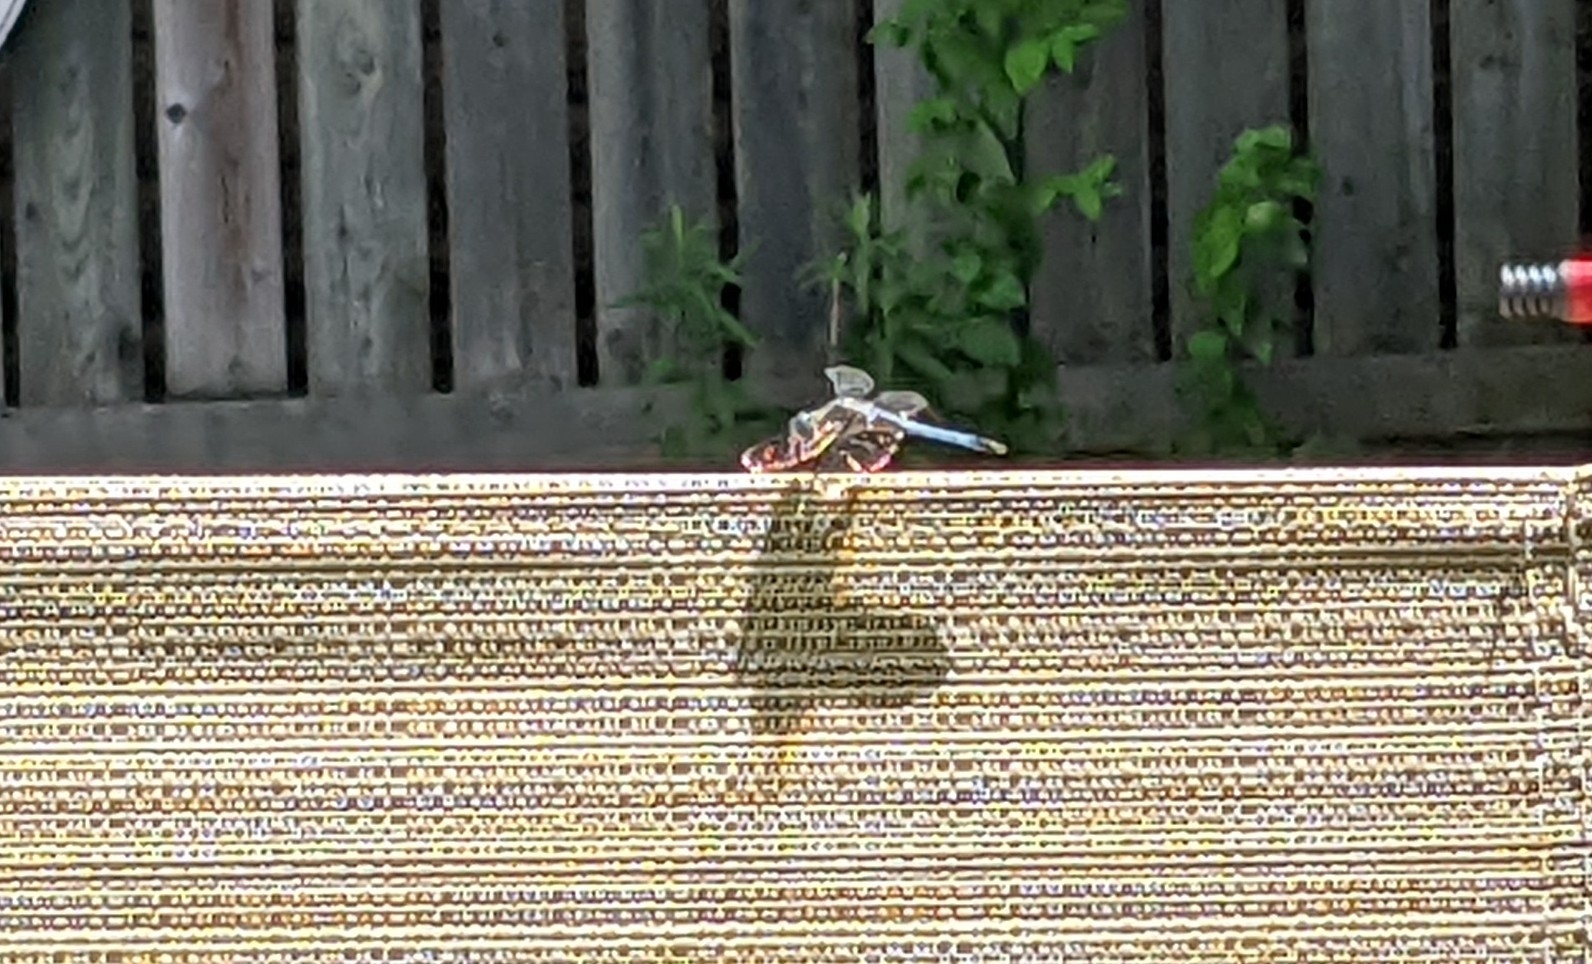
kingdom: Animalia
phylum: Arthropoda
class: Insecta
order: Odonata
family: Libellulidae
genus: Pachydiplax
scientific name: Pachydiplax longipennis
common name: Blue dasher
